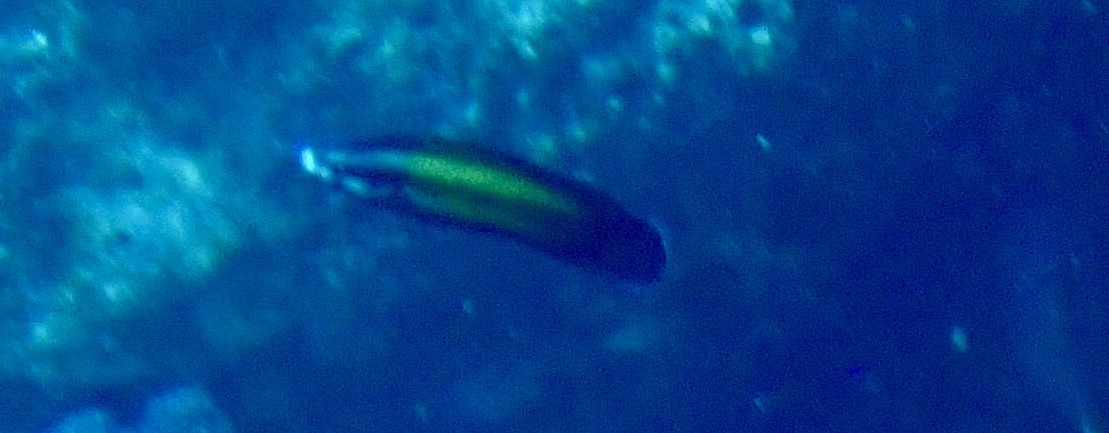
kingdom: Animalia
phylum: Chordata
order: Perciformes
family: Labridae
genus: Labropsis
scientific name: Labropsis australis
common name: Southern tubelip
